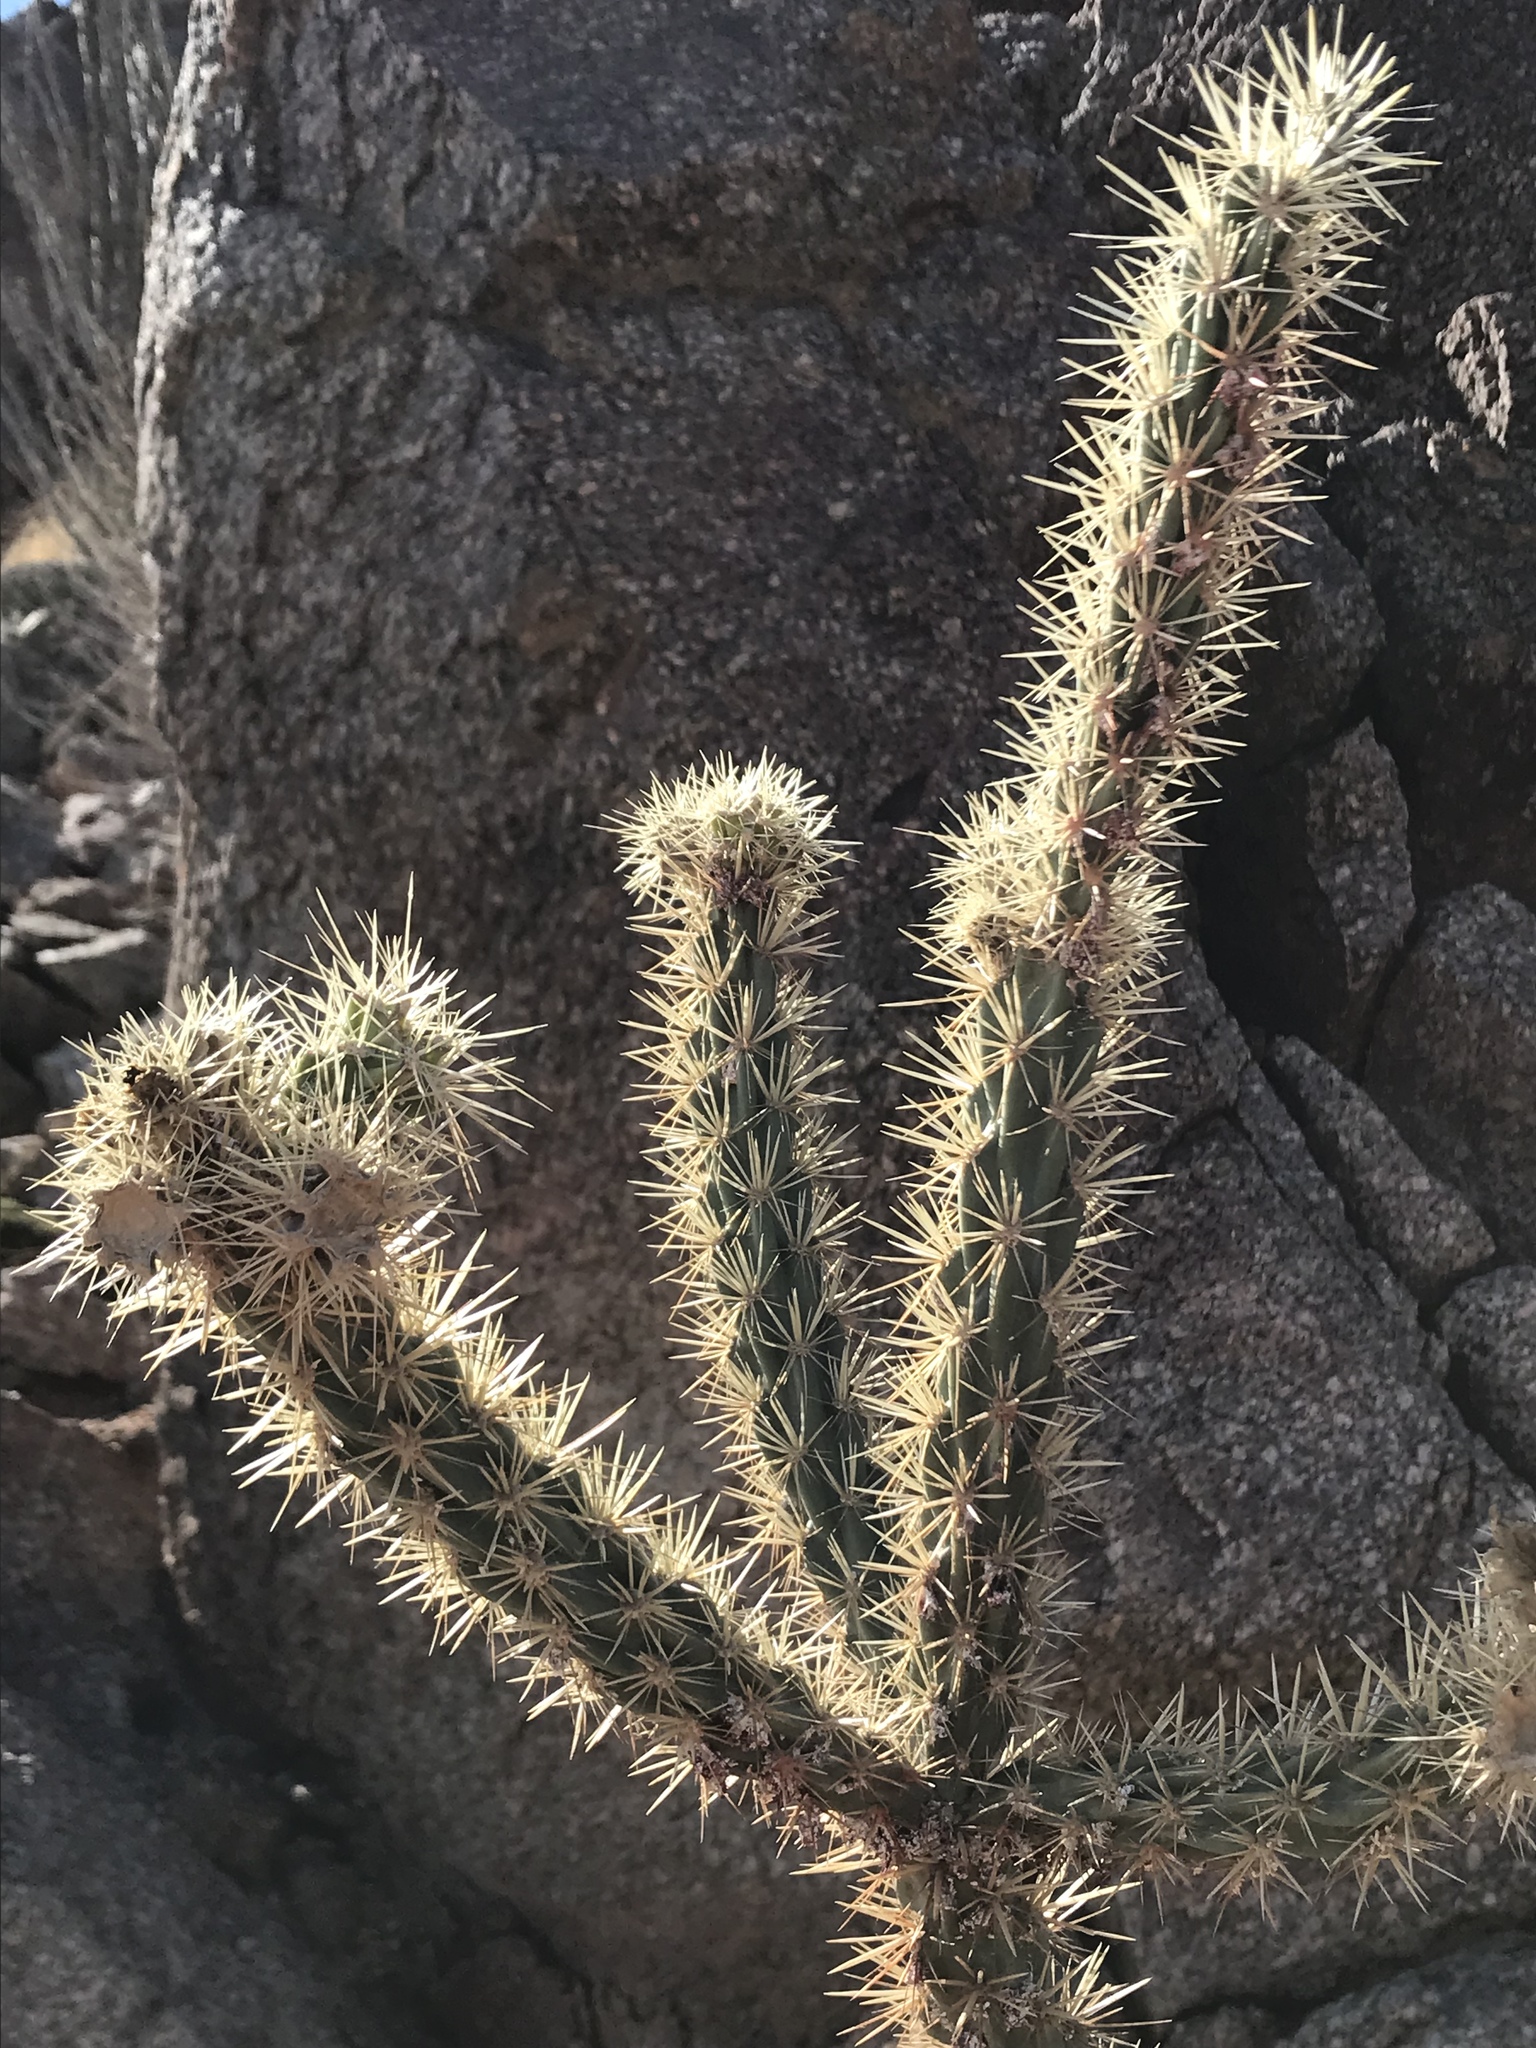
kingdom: Plantae
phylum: Tracheophyta
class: Magnoliopsida
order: Caryophyllales
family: Cactaceae
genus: Cylindropuntia
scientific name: Cylindropuntia acanthocarpa
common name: Buckhorn cholla
